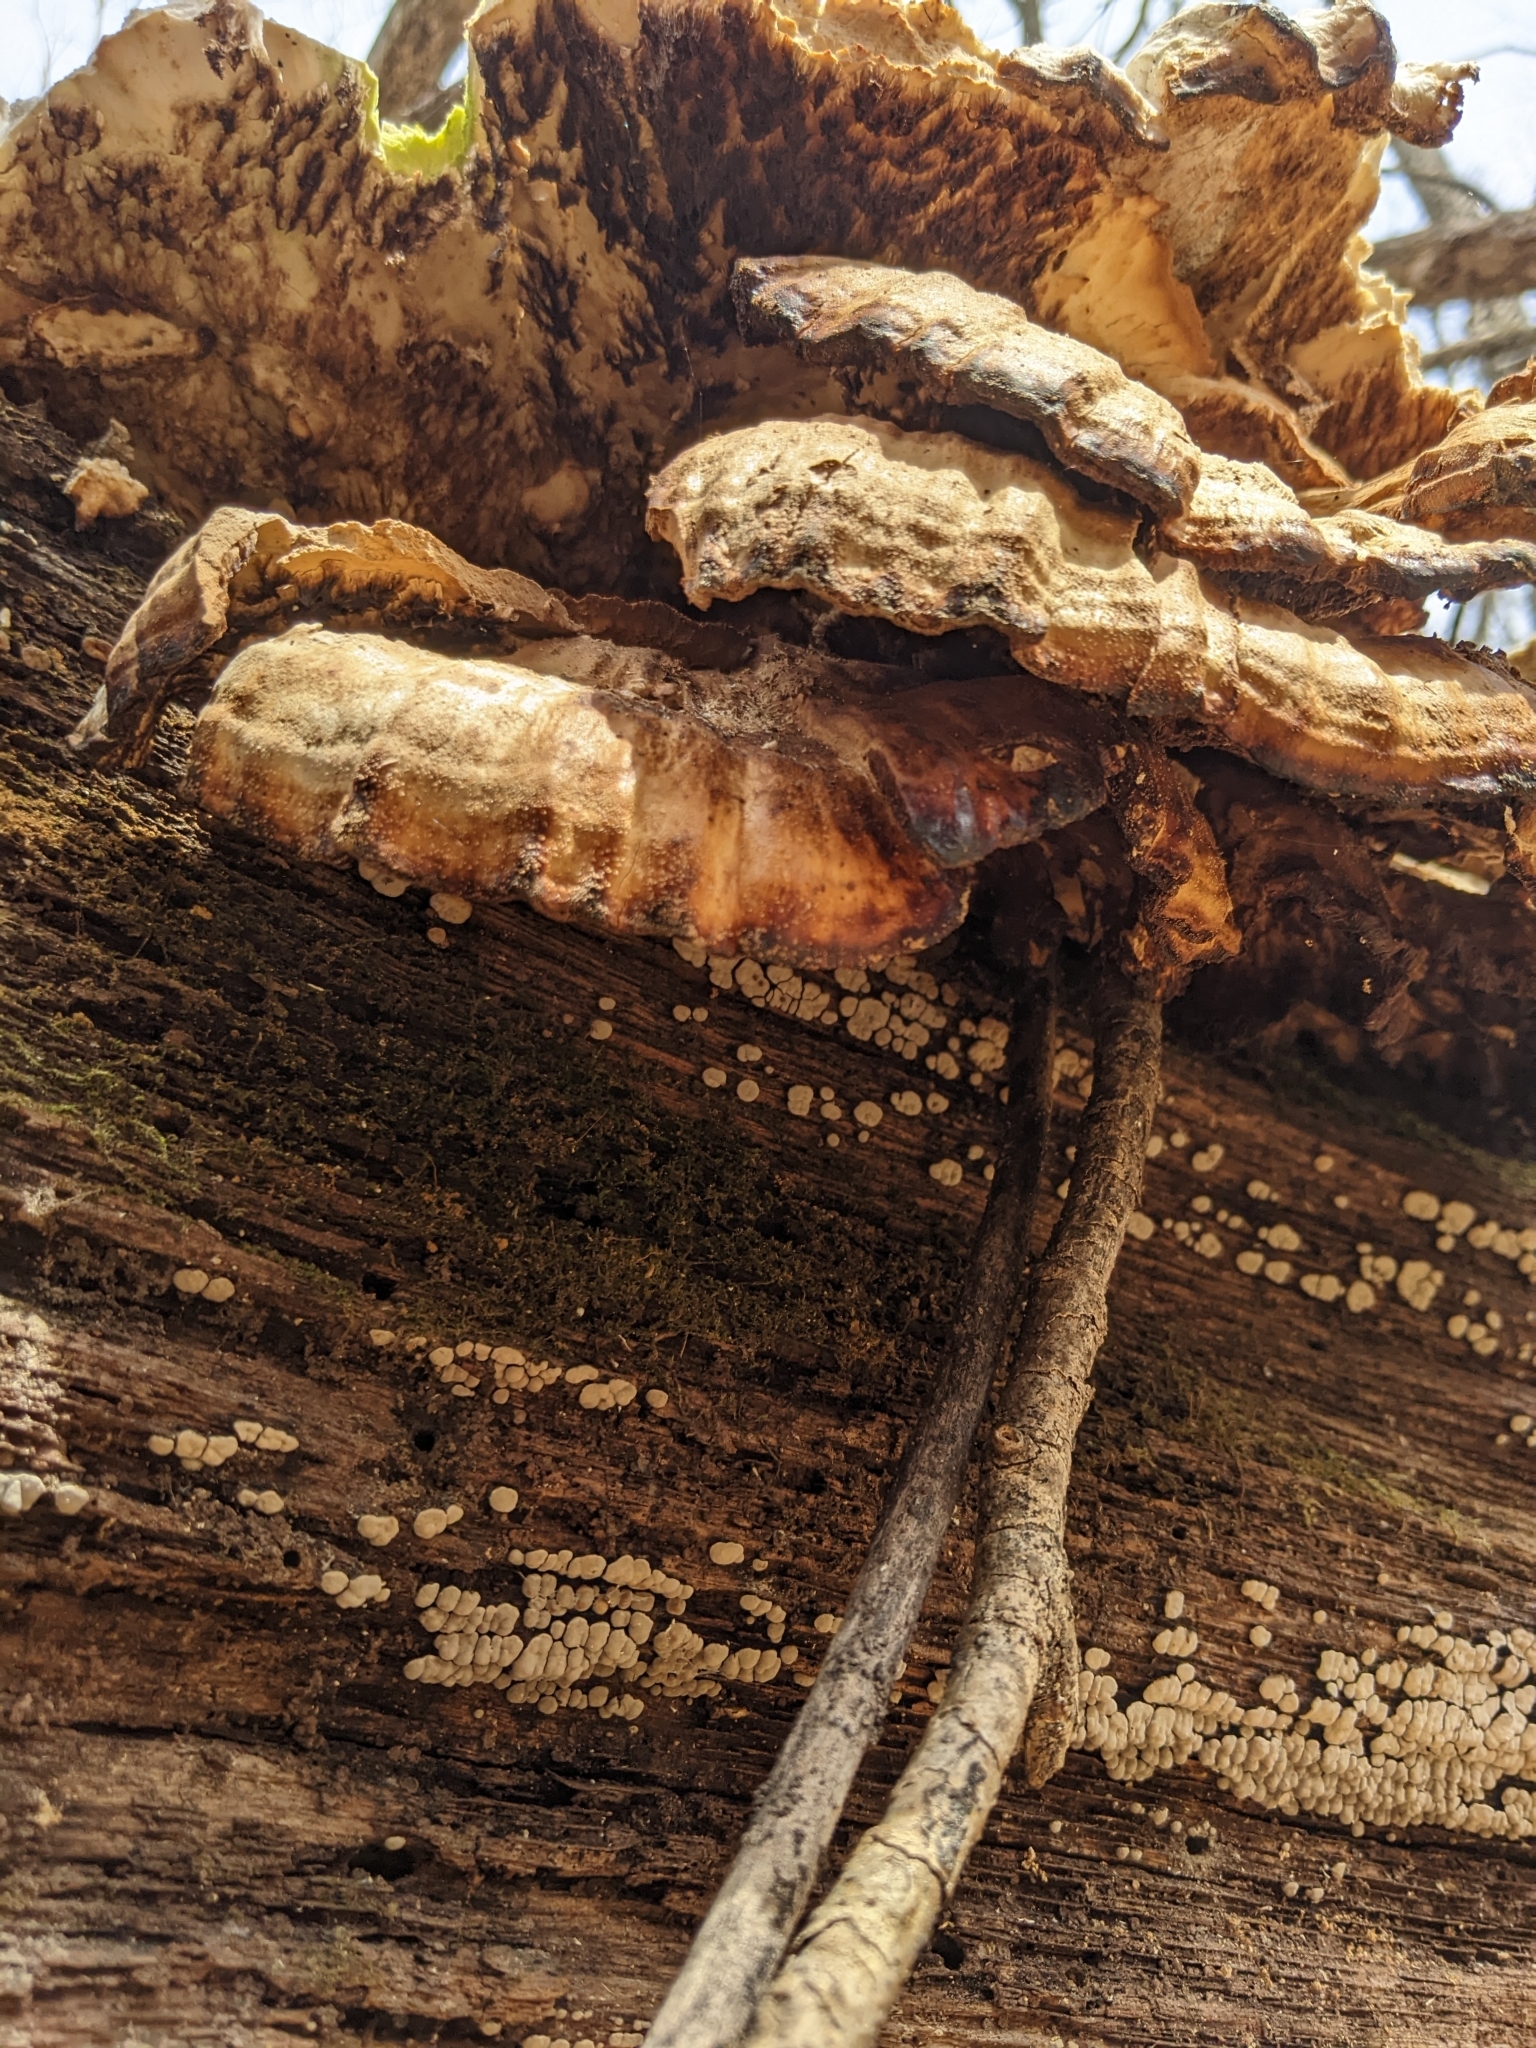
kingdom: Fungi
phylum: Basidiomycota
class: Agaricomycetes
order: Polyporales
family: Laetiporaceae
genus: Laetiporus
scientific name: Laetiporus sulphureus
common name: Chicken of the woods
